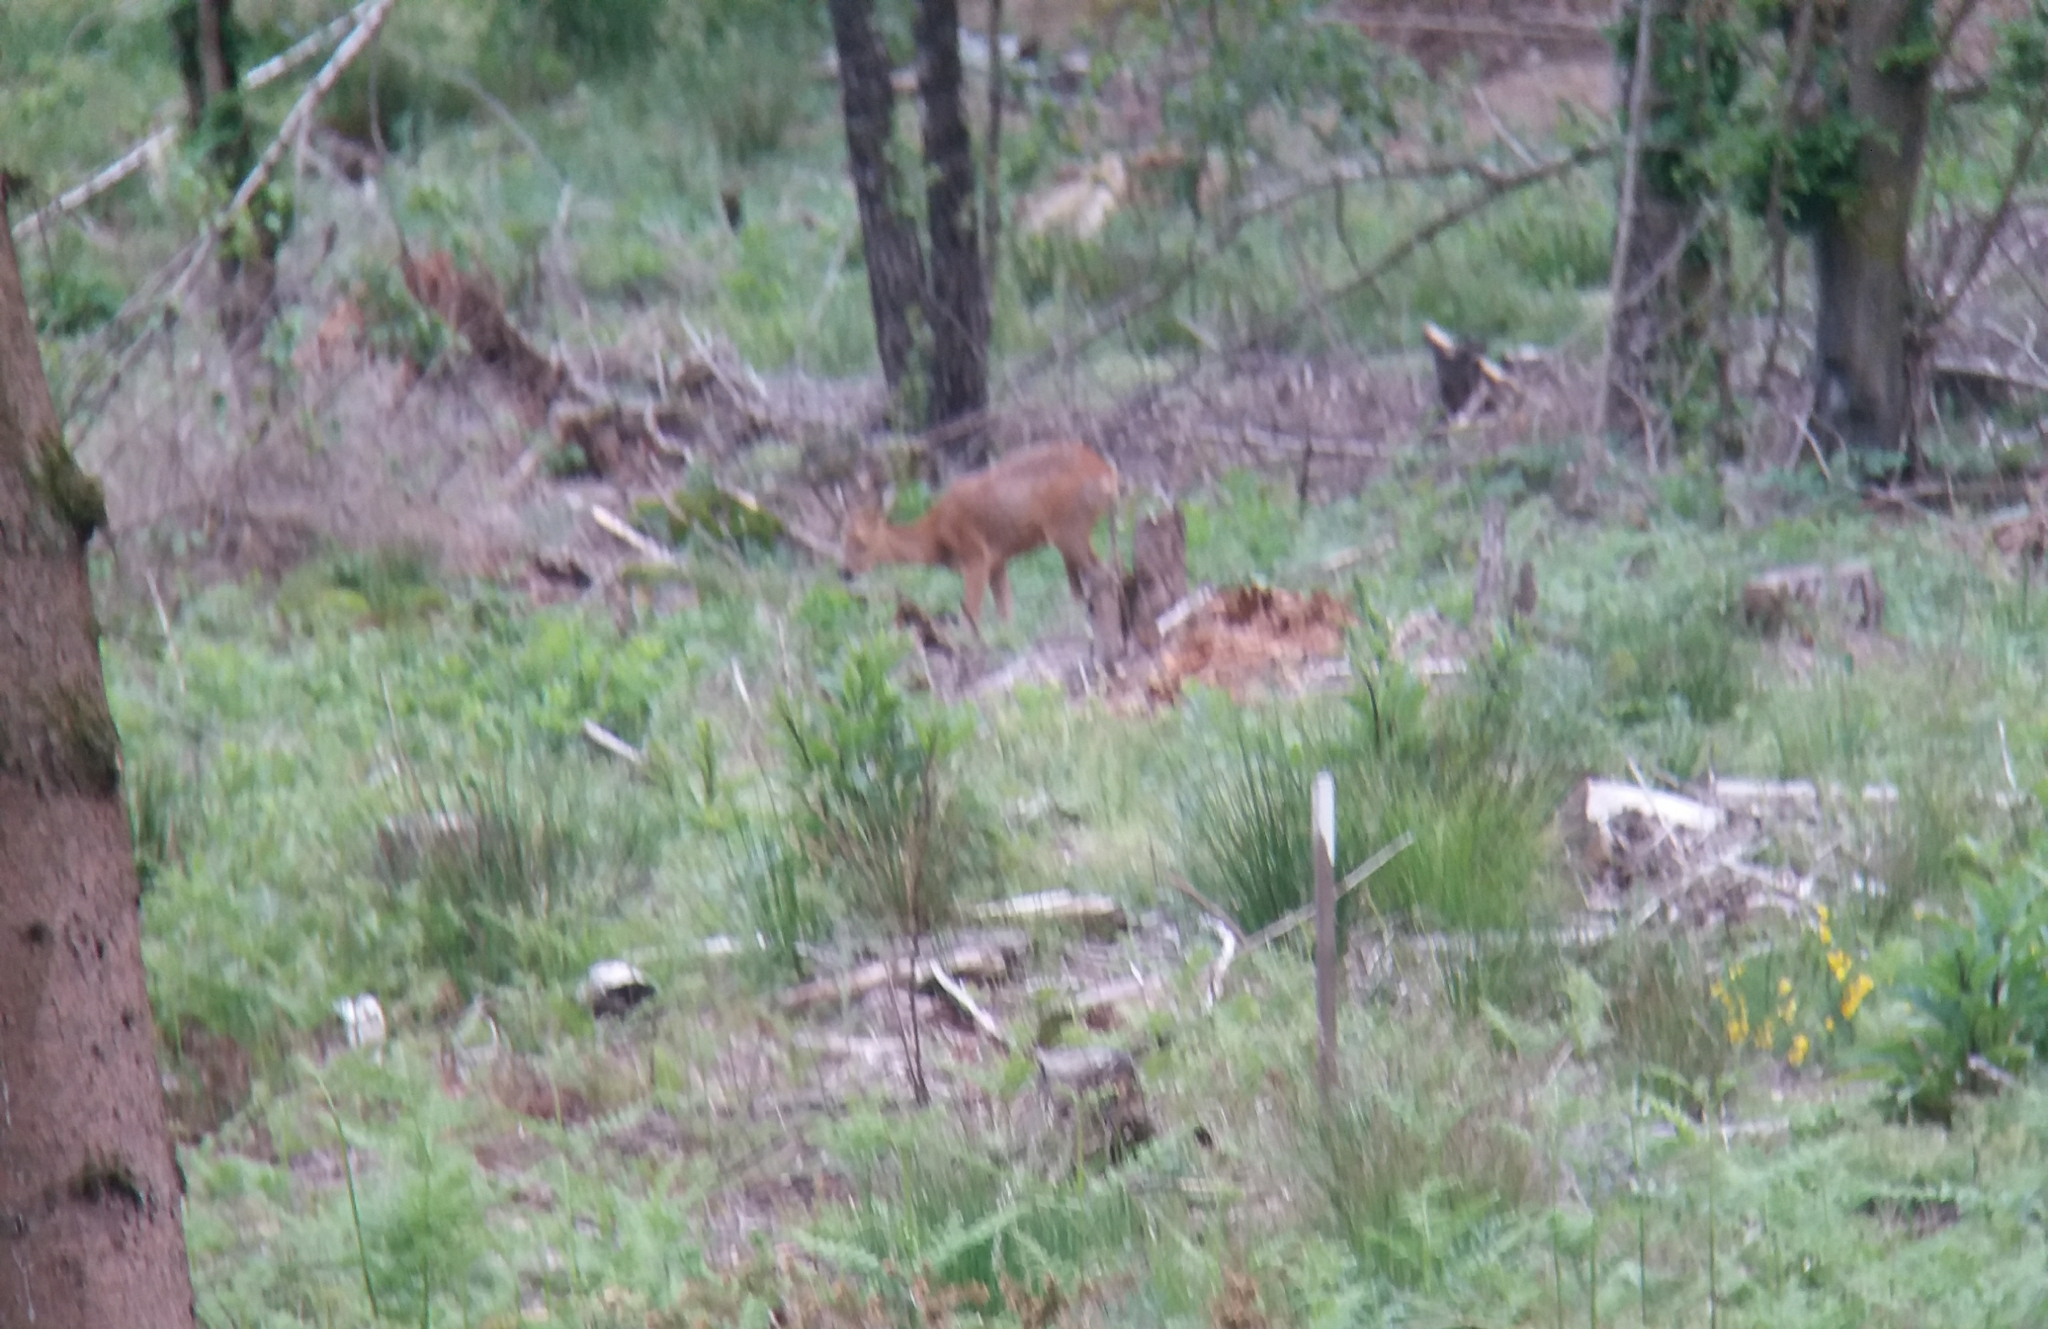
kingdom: Animalia
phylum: Chordata
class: Mammalia
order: Artiodactyla
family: Cervidae
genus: Capreolus
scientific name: Capreolus capreolus
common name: Western roe deer
